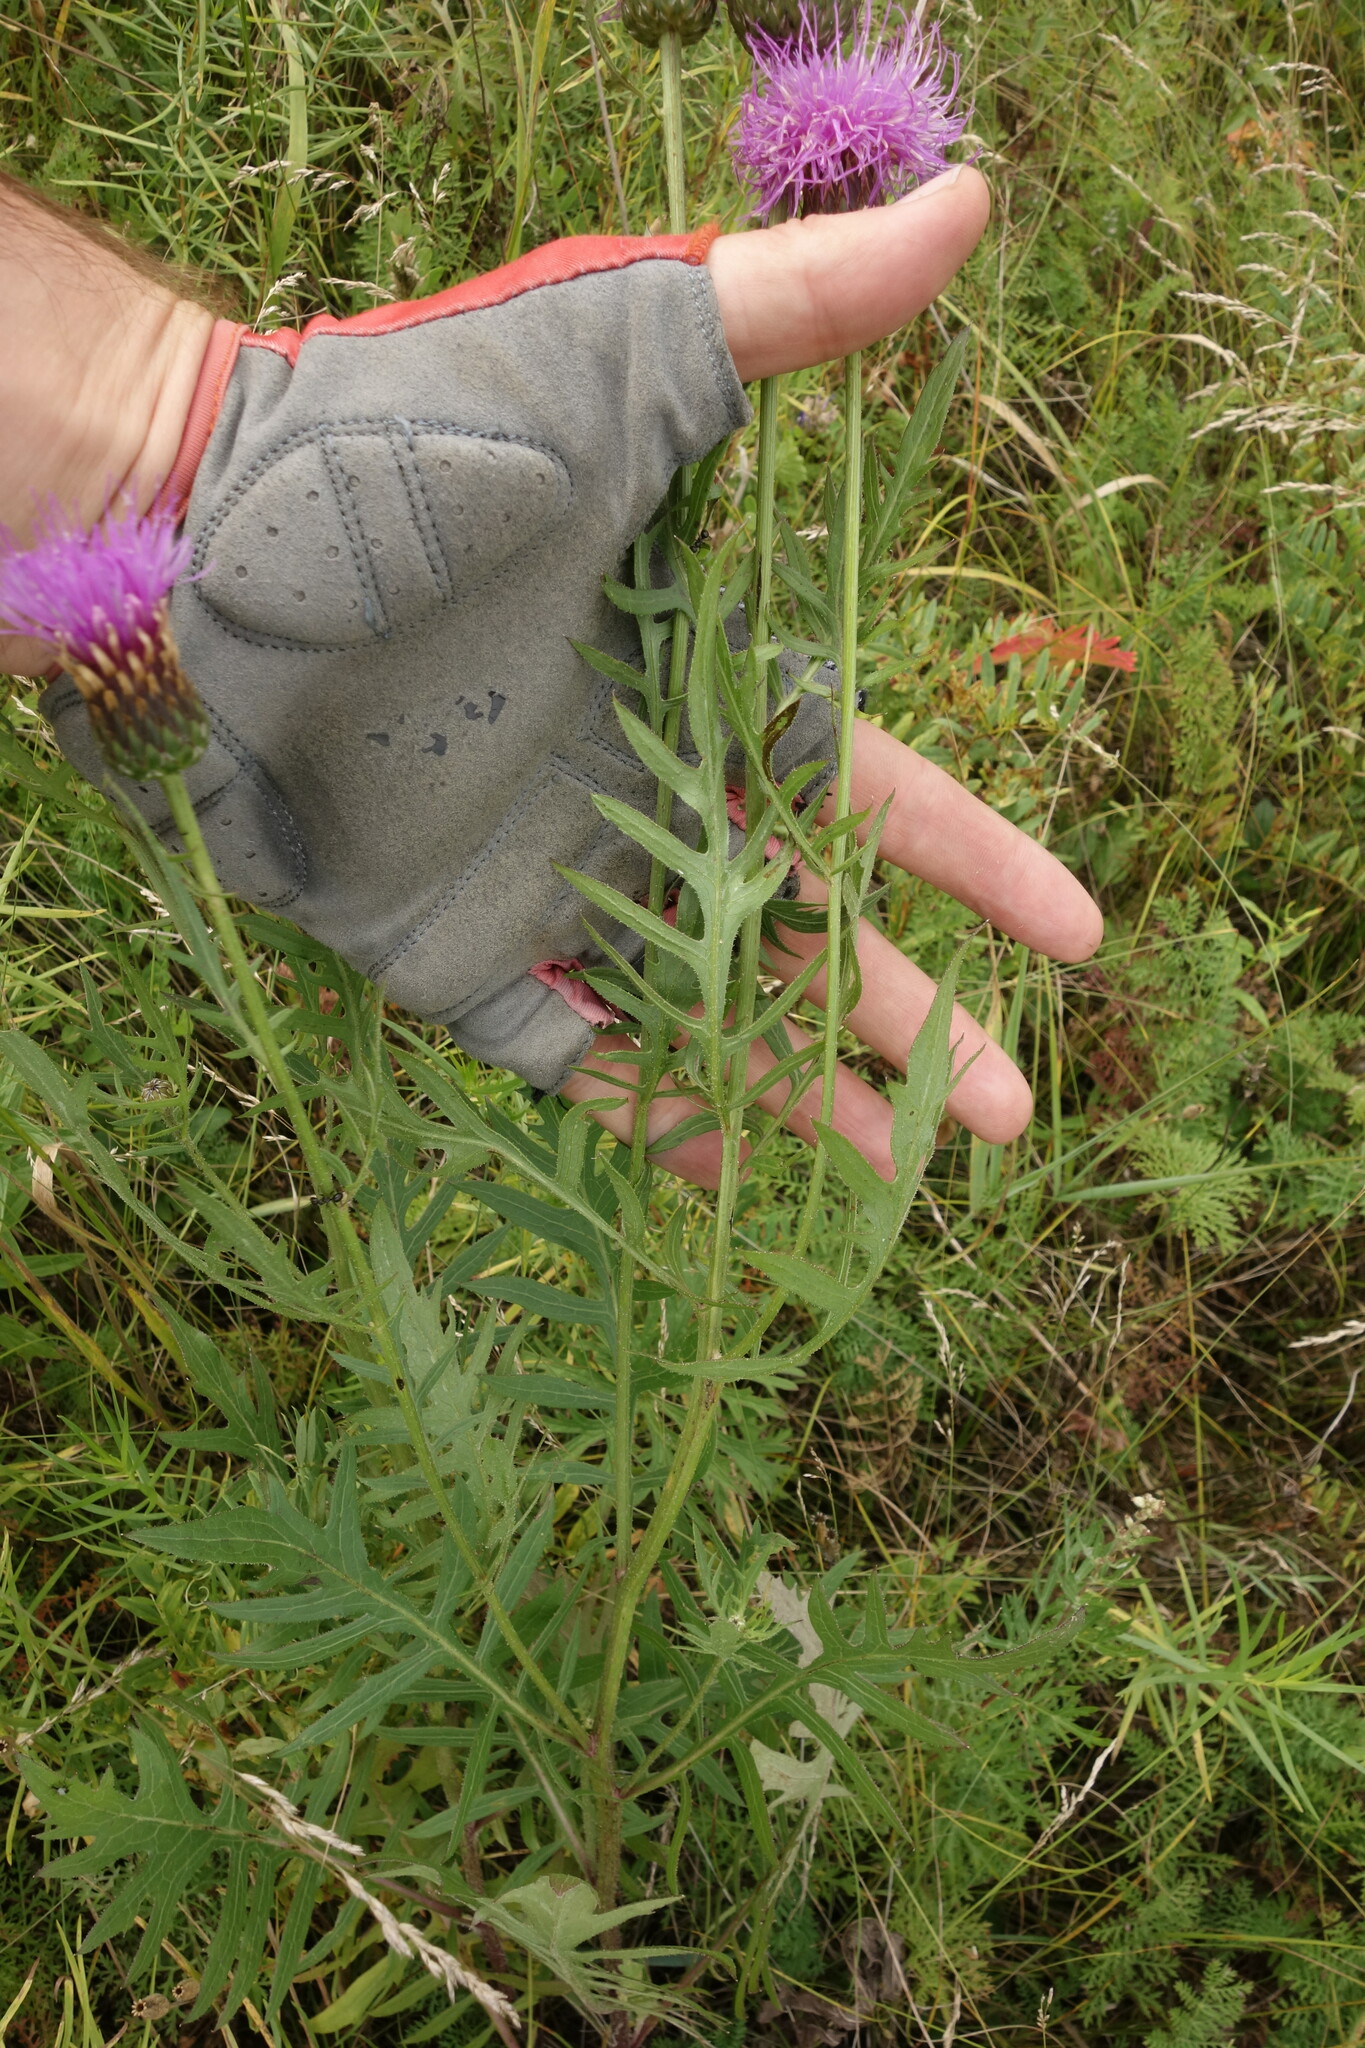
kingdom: Plantae
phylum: Tracheophyta
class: Magnoliopsida
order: Asterales
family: Asteraceae
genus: Klasea
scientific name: Klasea centauroides
